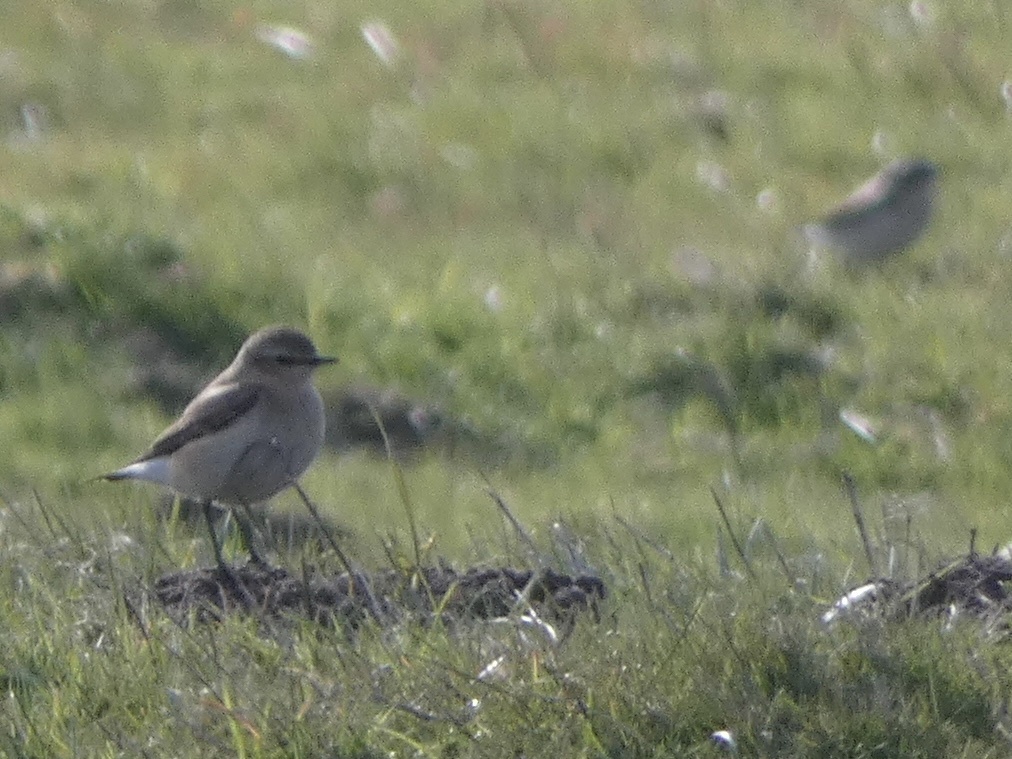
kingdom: Animalia
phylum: Chordata
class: Aves
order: Passeriformes
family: Muscicapidae
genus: Oenanthe
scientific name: Oenanthe oenanthe
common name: Northern wheatear
